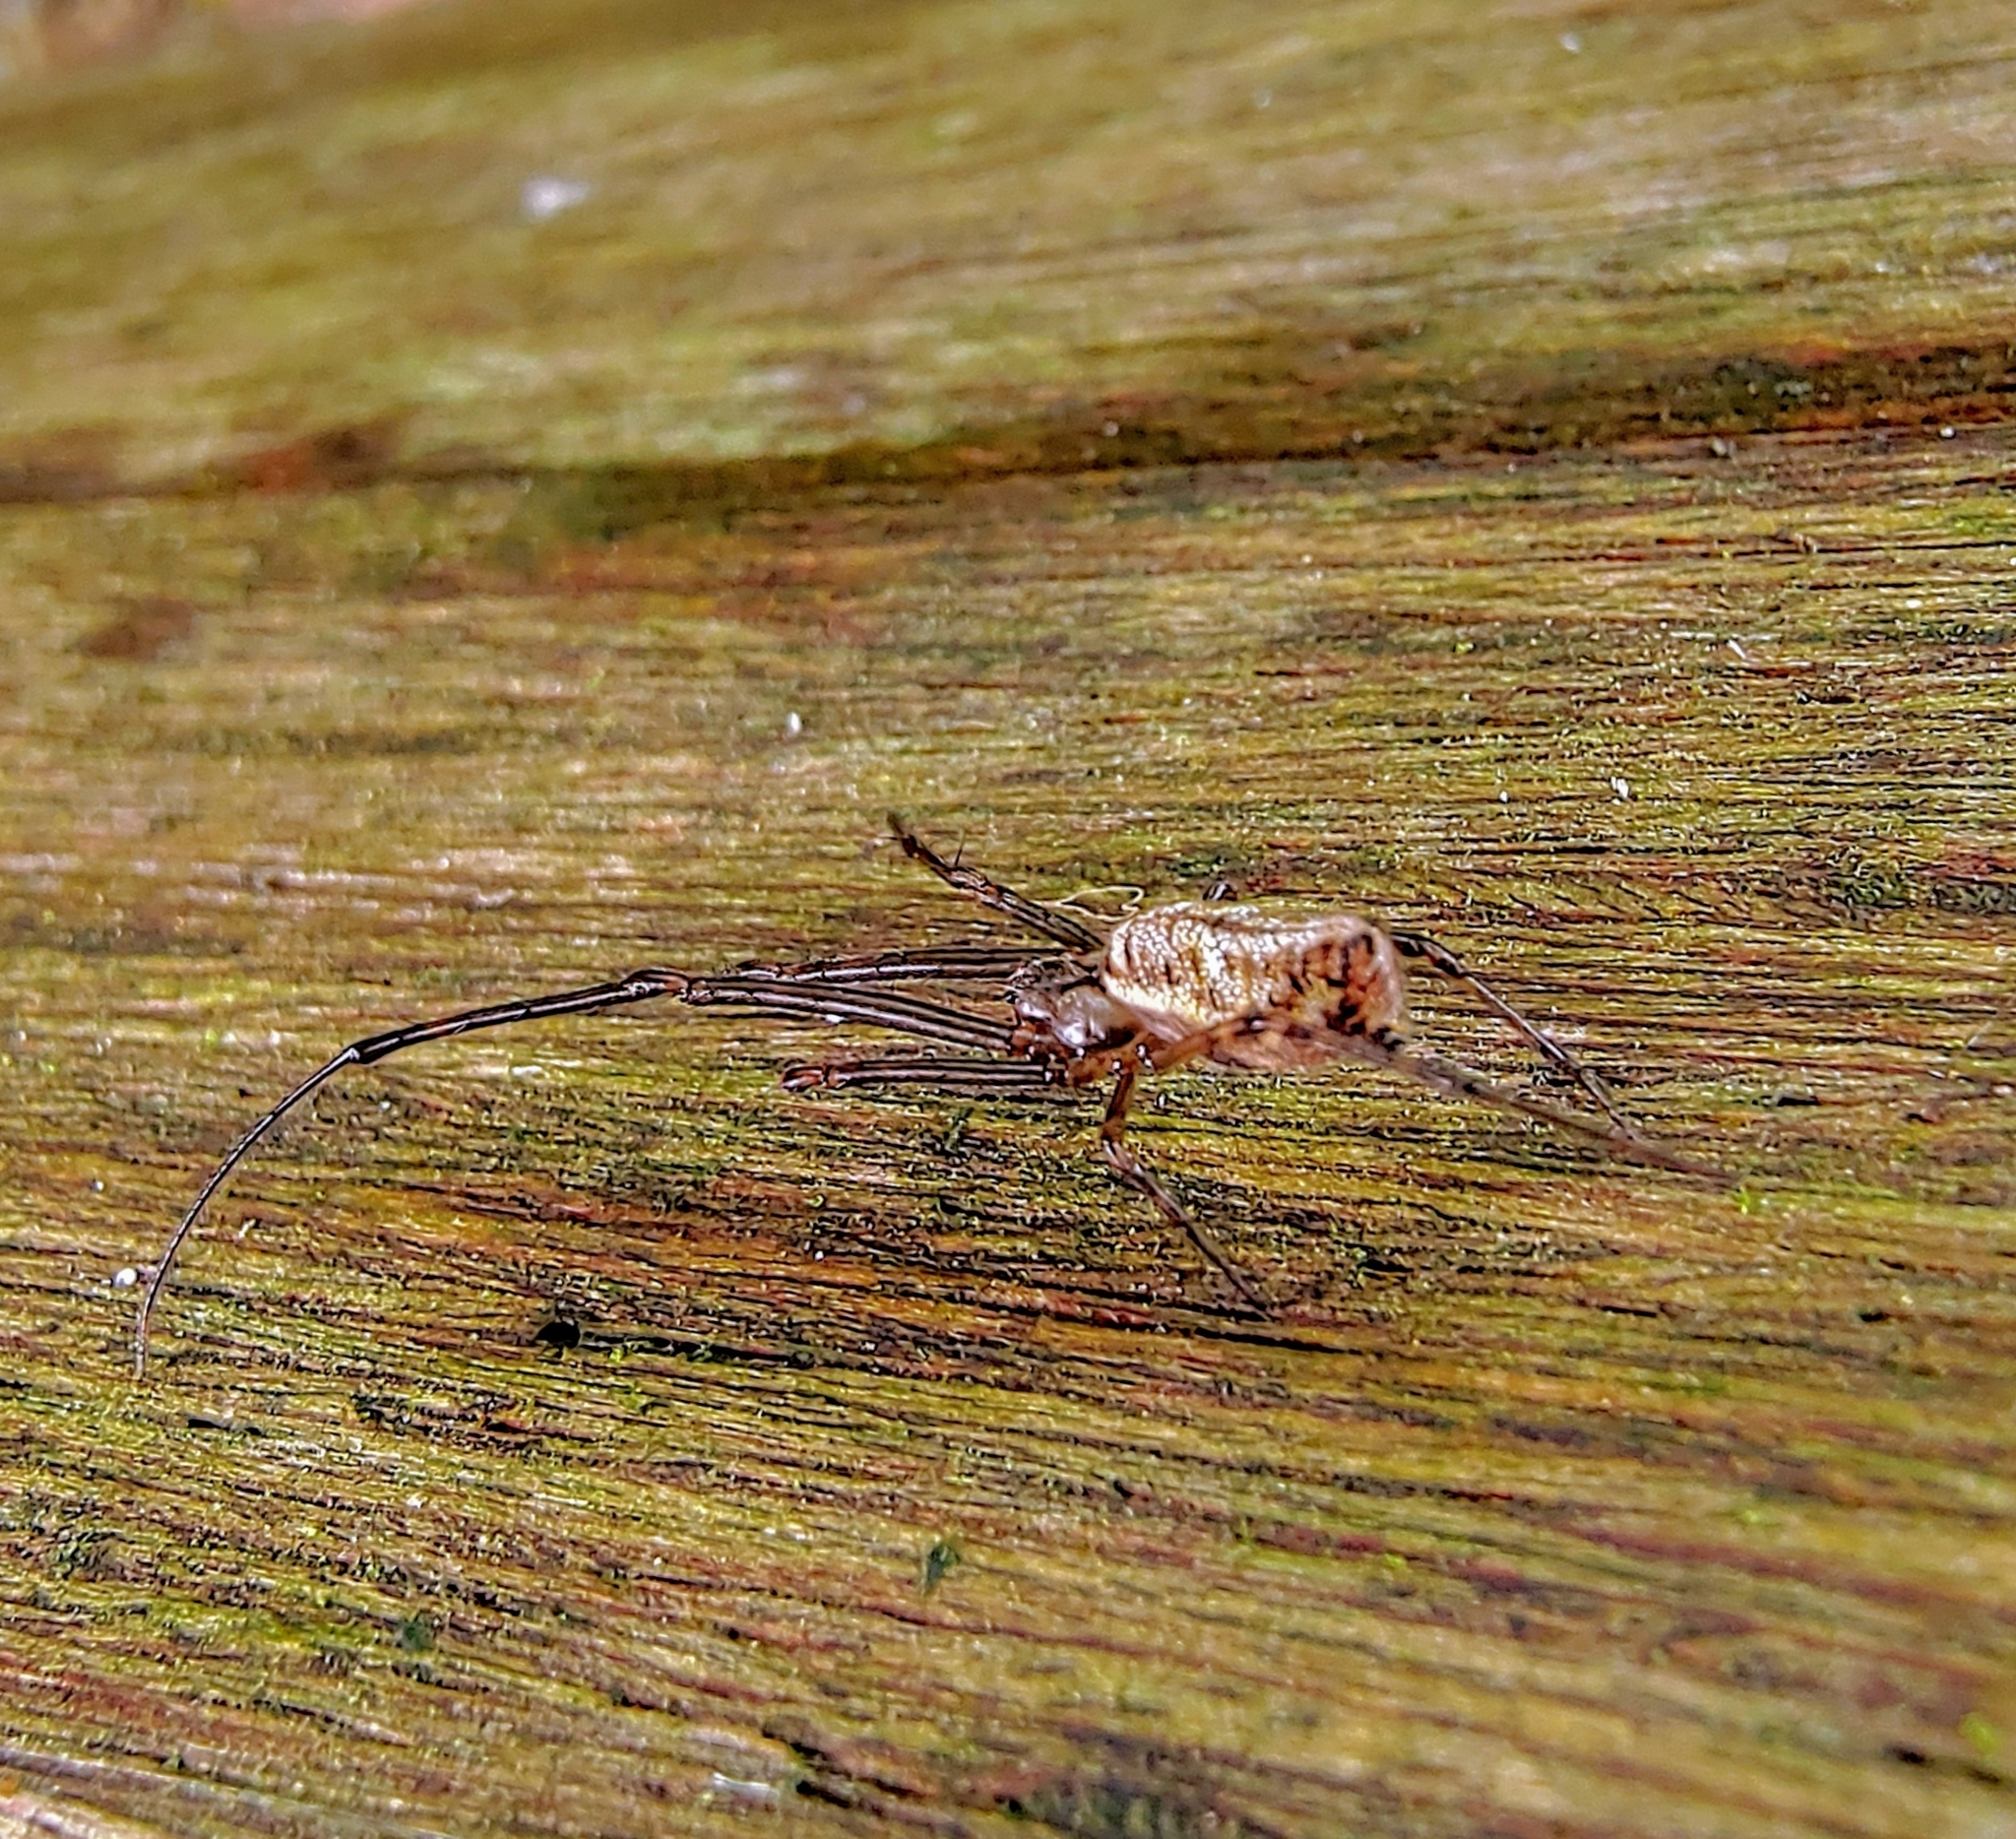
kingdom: Animalia
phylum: Arthropoda
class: Arachnida
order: Araneae
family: Tetragnathidae
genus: Tylorida
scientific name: Tylorida ventralis
